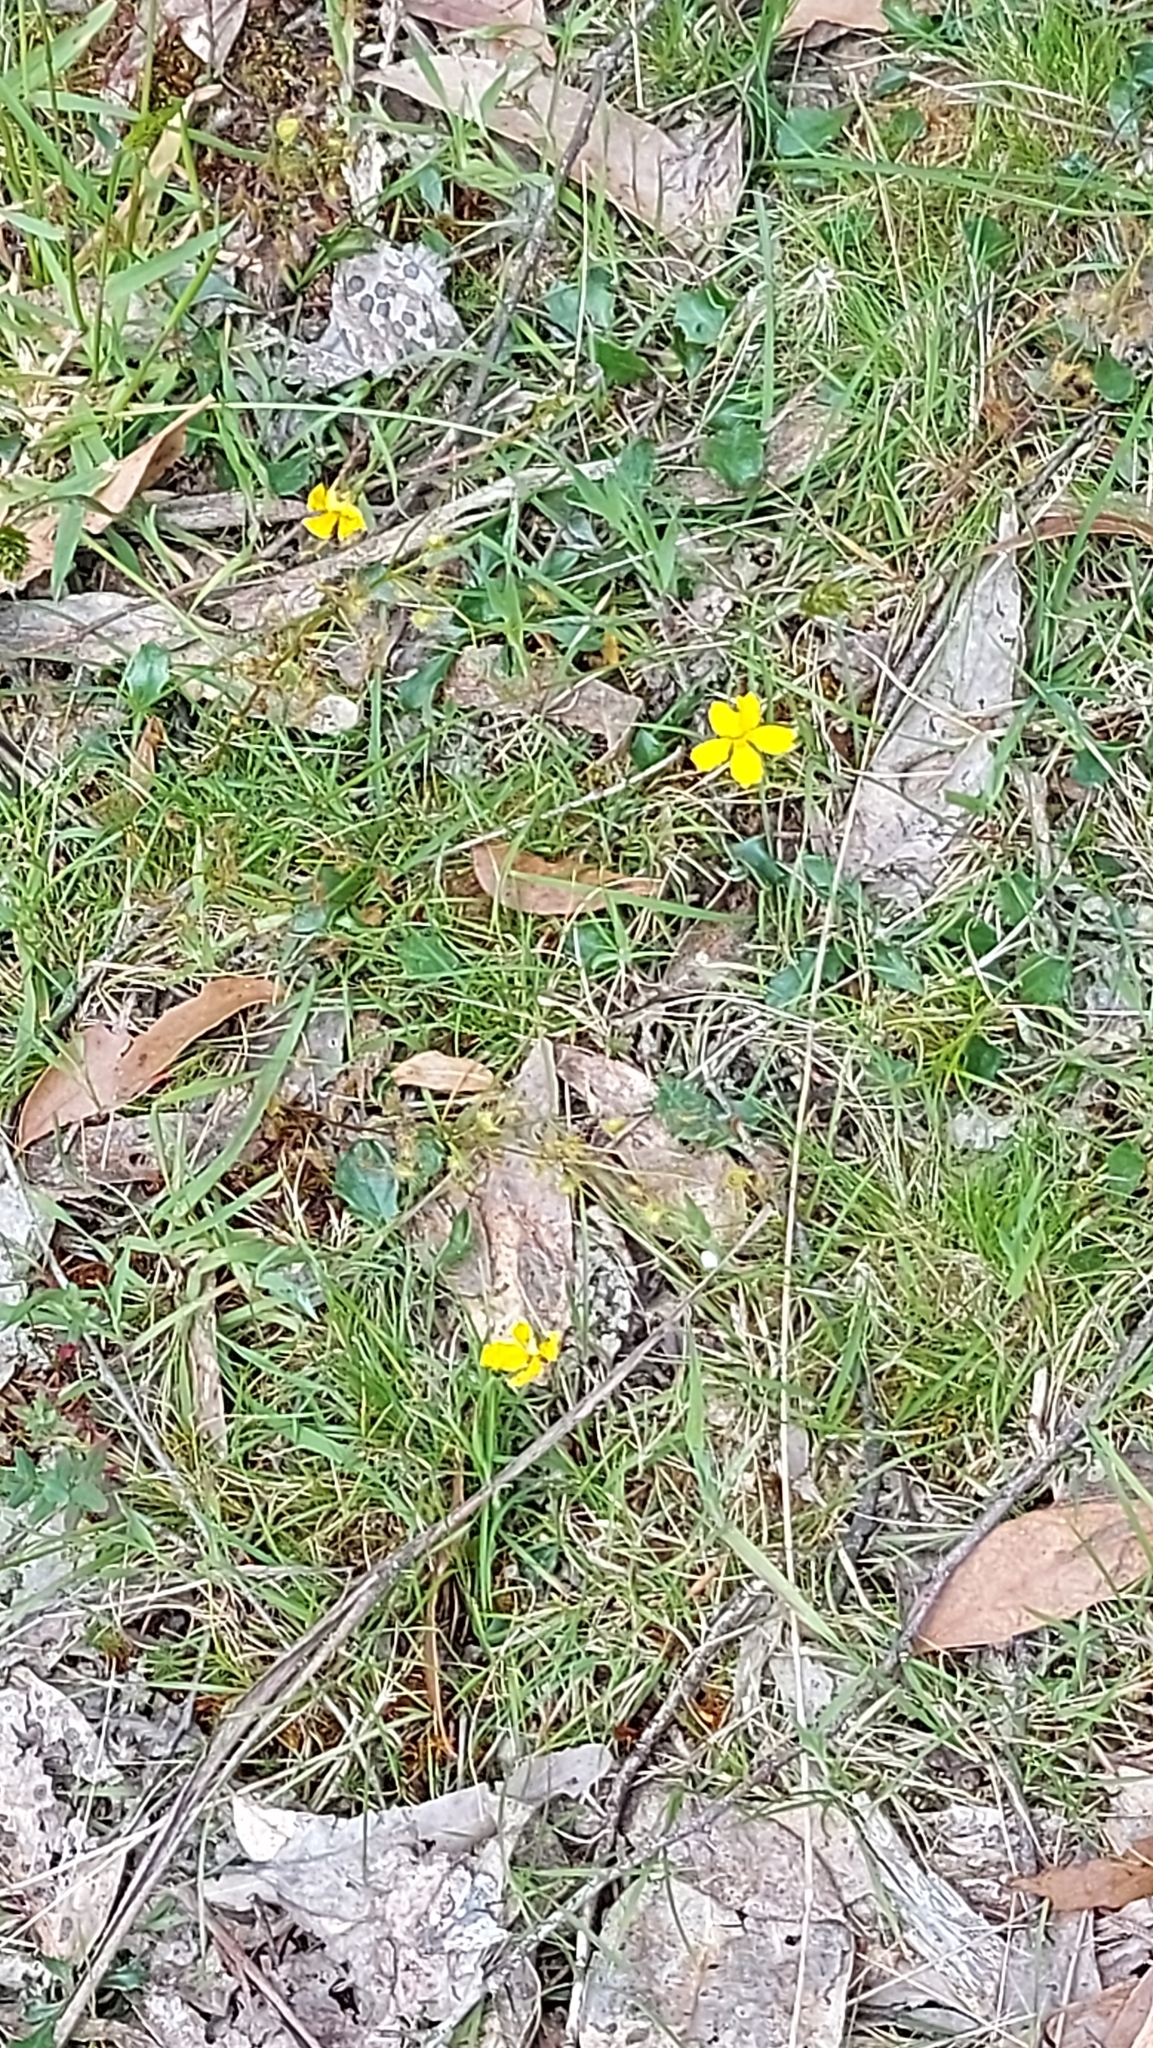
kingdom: Plantae
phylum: Tracheophyta
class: Magnoliopsida
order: Asterales
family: Goodeniaceae
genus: Goodenia
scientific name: Goodenia lanata
